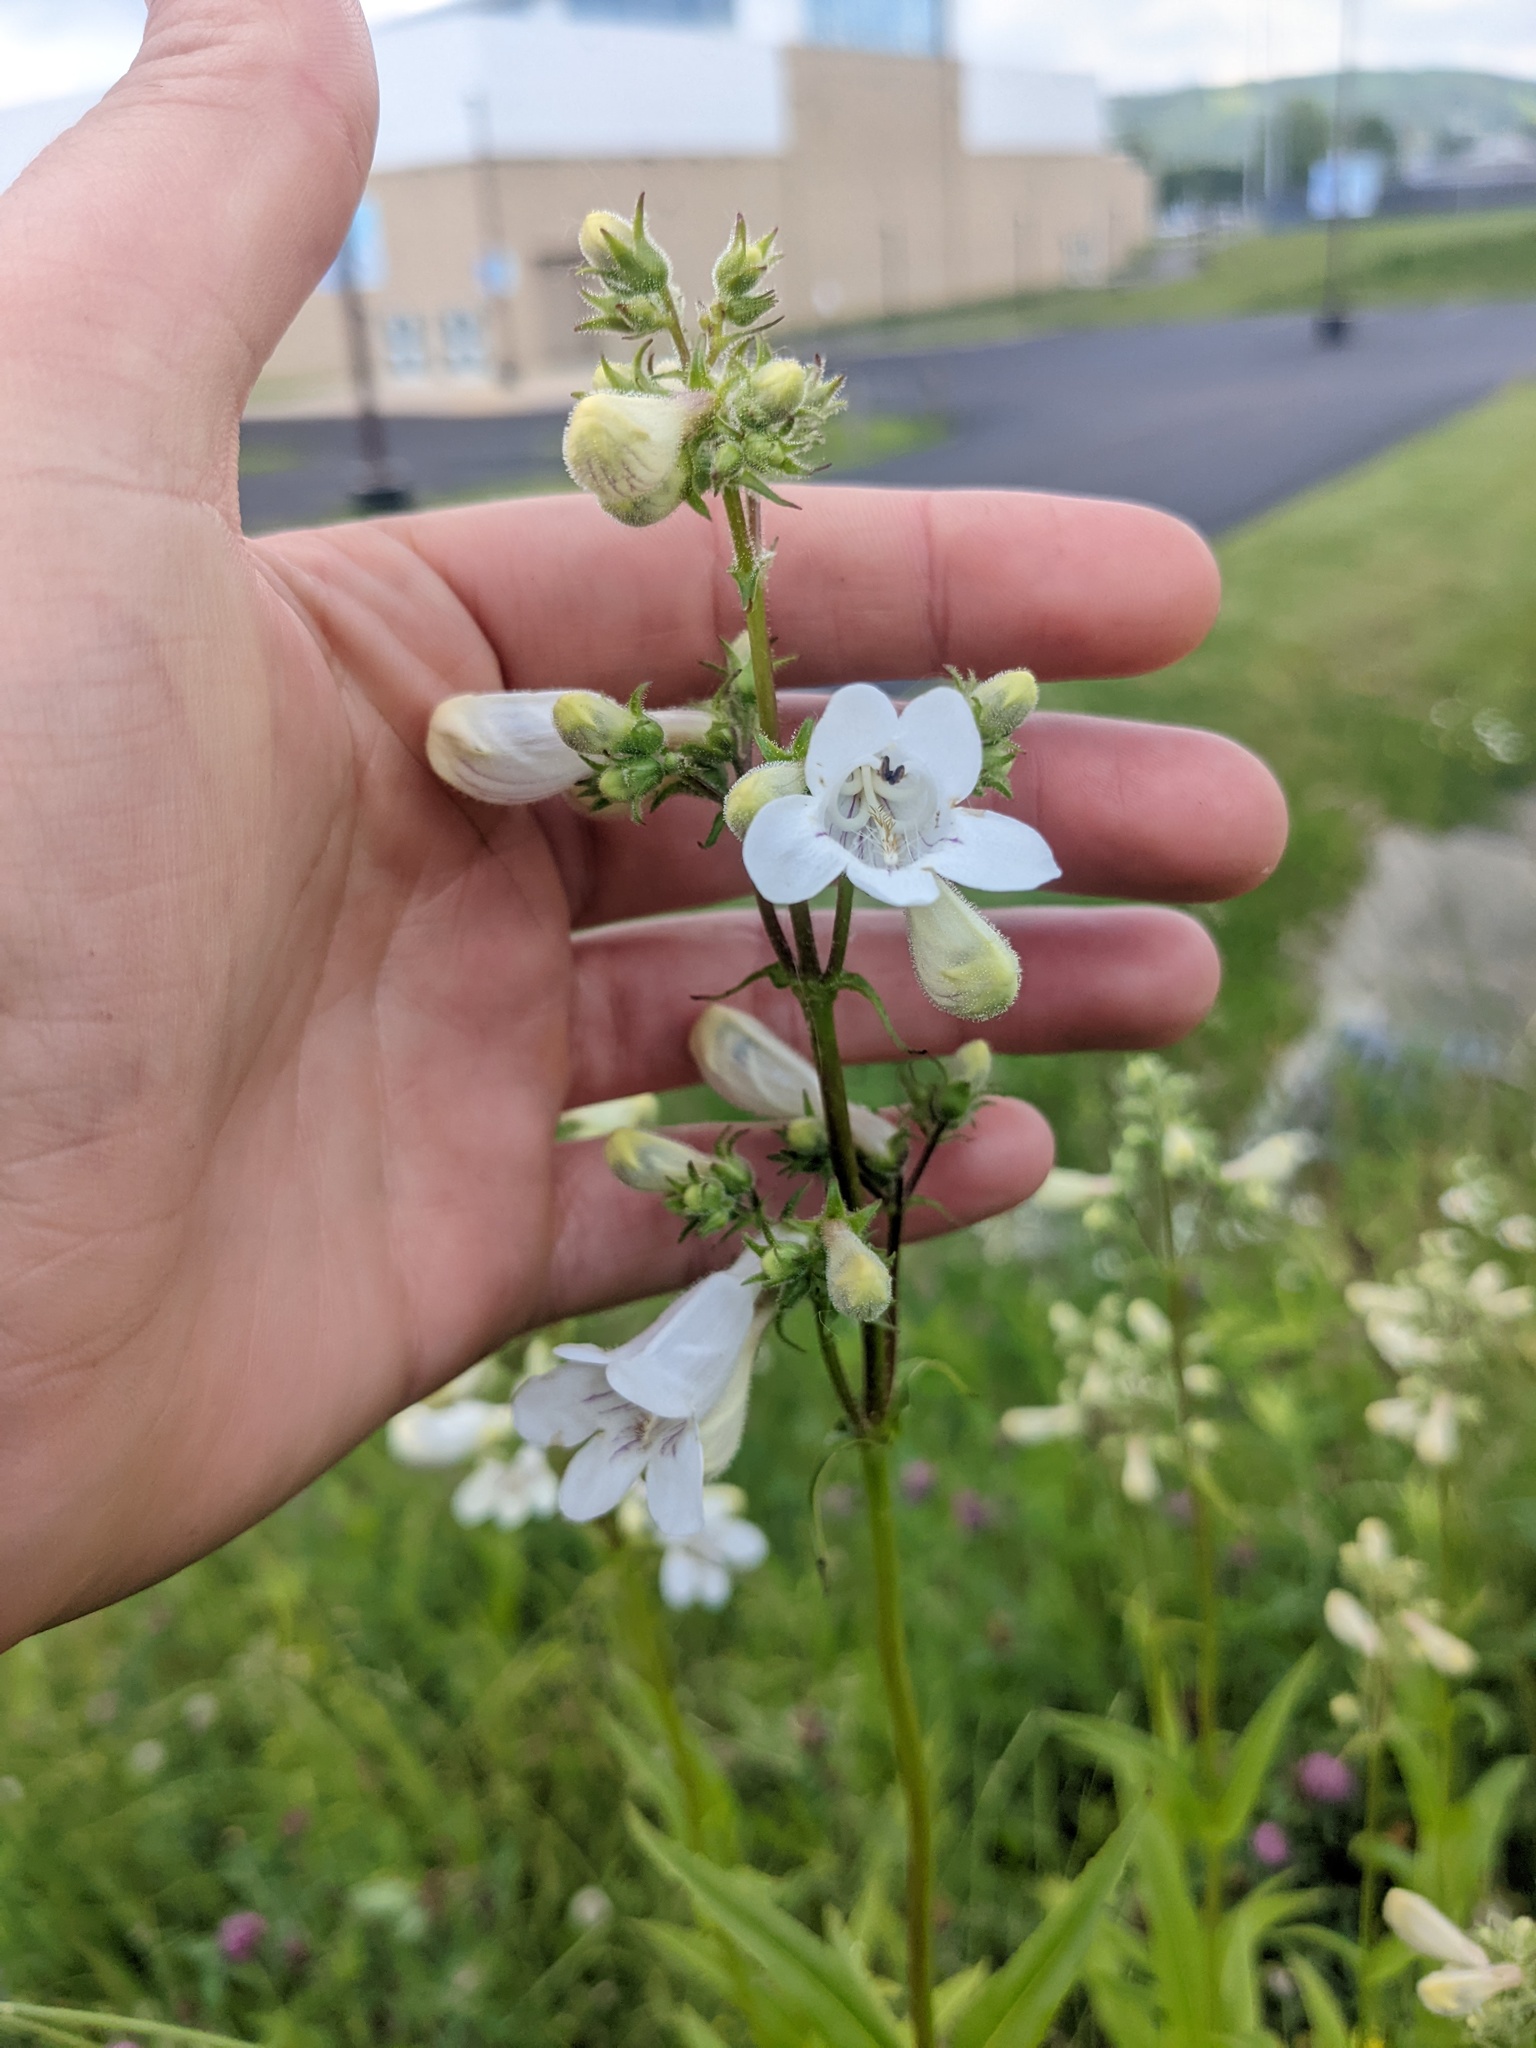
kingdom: Plantae
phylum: Tracheophyta
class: Magnoliopsida
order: Lamiales
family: Plantaginaceae
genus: Penstemon
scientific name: Penstemon digitalis
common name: Foxglove beardtongue
